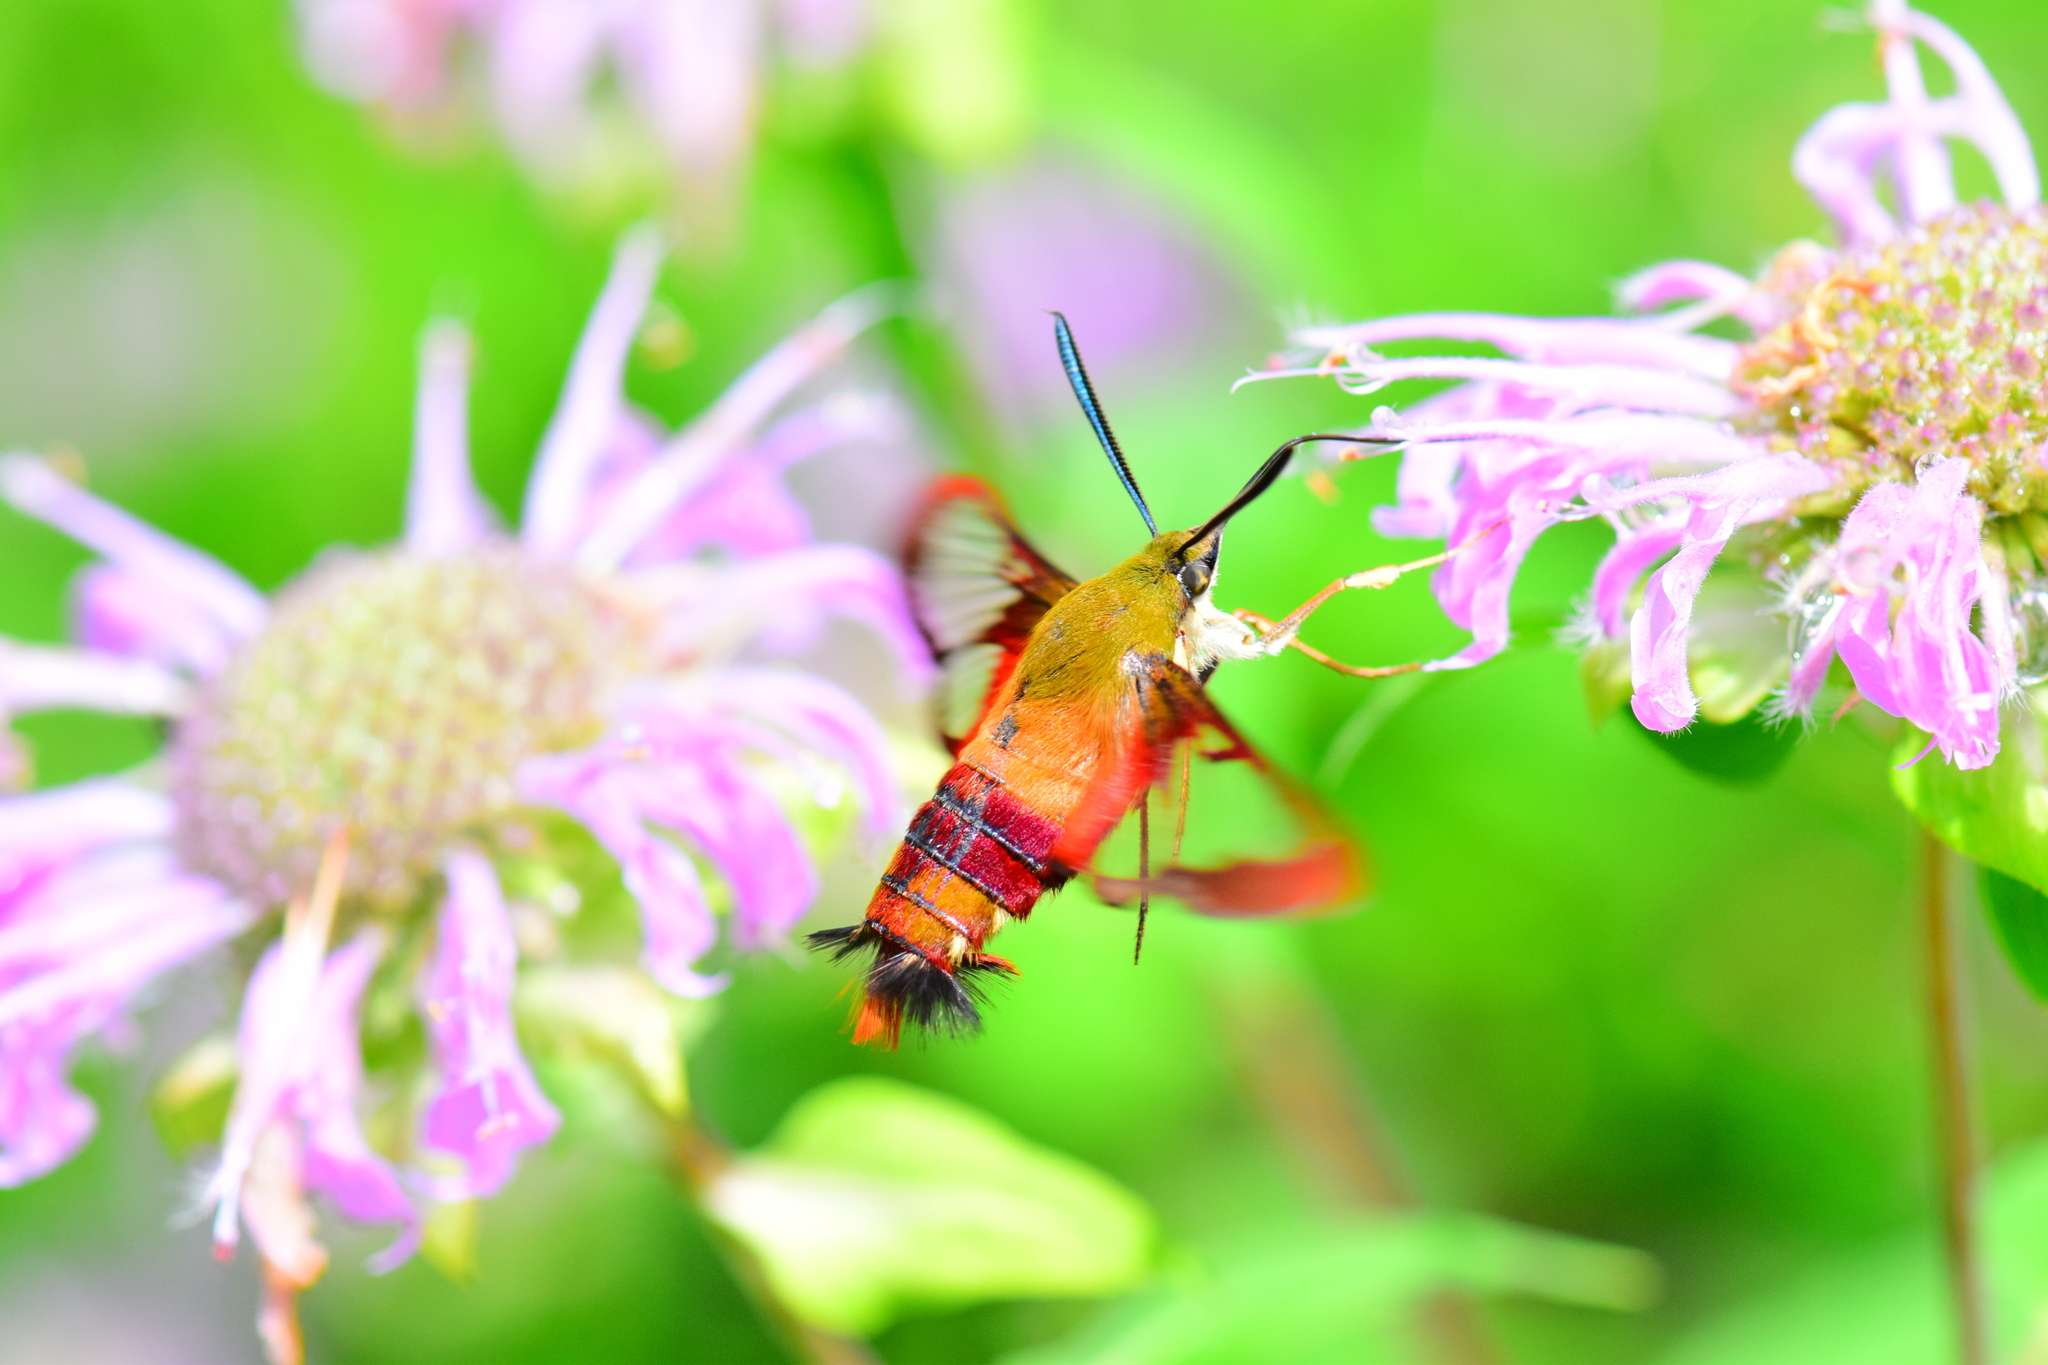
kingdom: Animalia
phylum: Arthropoda
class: Insecta
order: Lepidoptera
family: Sphingidae
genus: Hemaris
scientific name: Hemaris thysbe
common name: Common clear-wing
